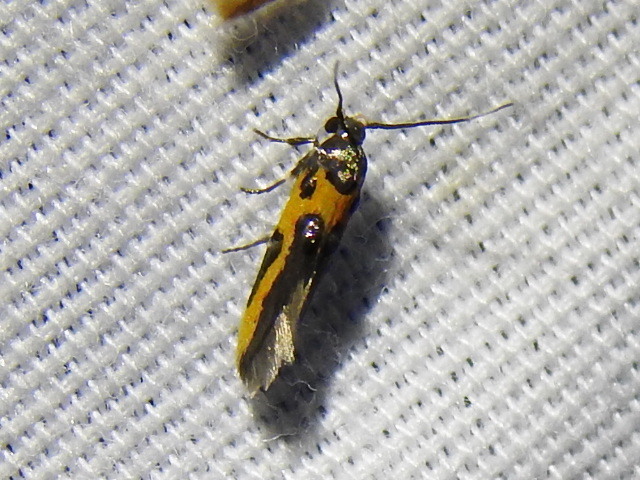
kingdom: Animalia
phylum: Arthropoda
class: Insecta
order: Lepidoptera
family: Cosmopterigidae
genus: Euclemensia
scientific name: Euclemensia bassettella
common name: Kermes scale moth
